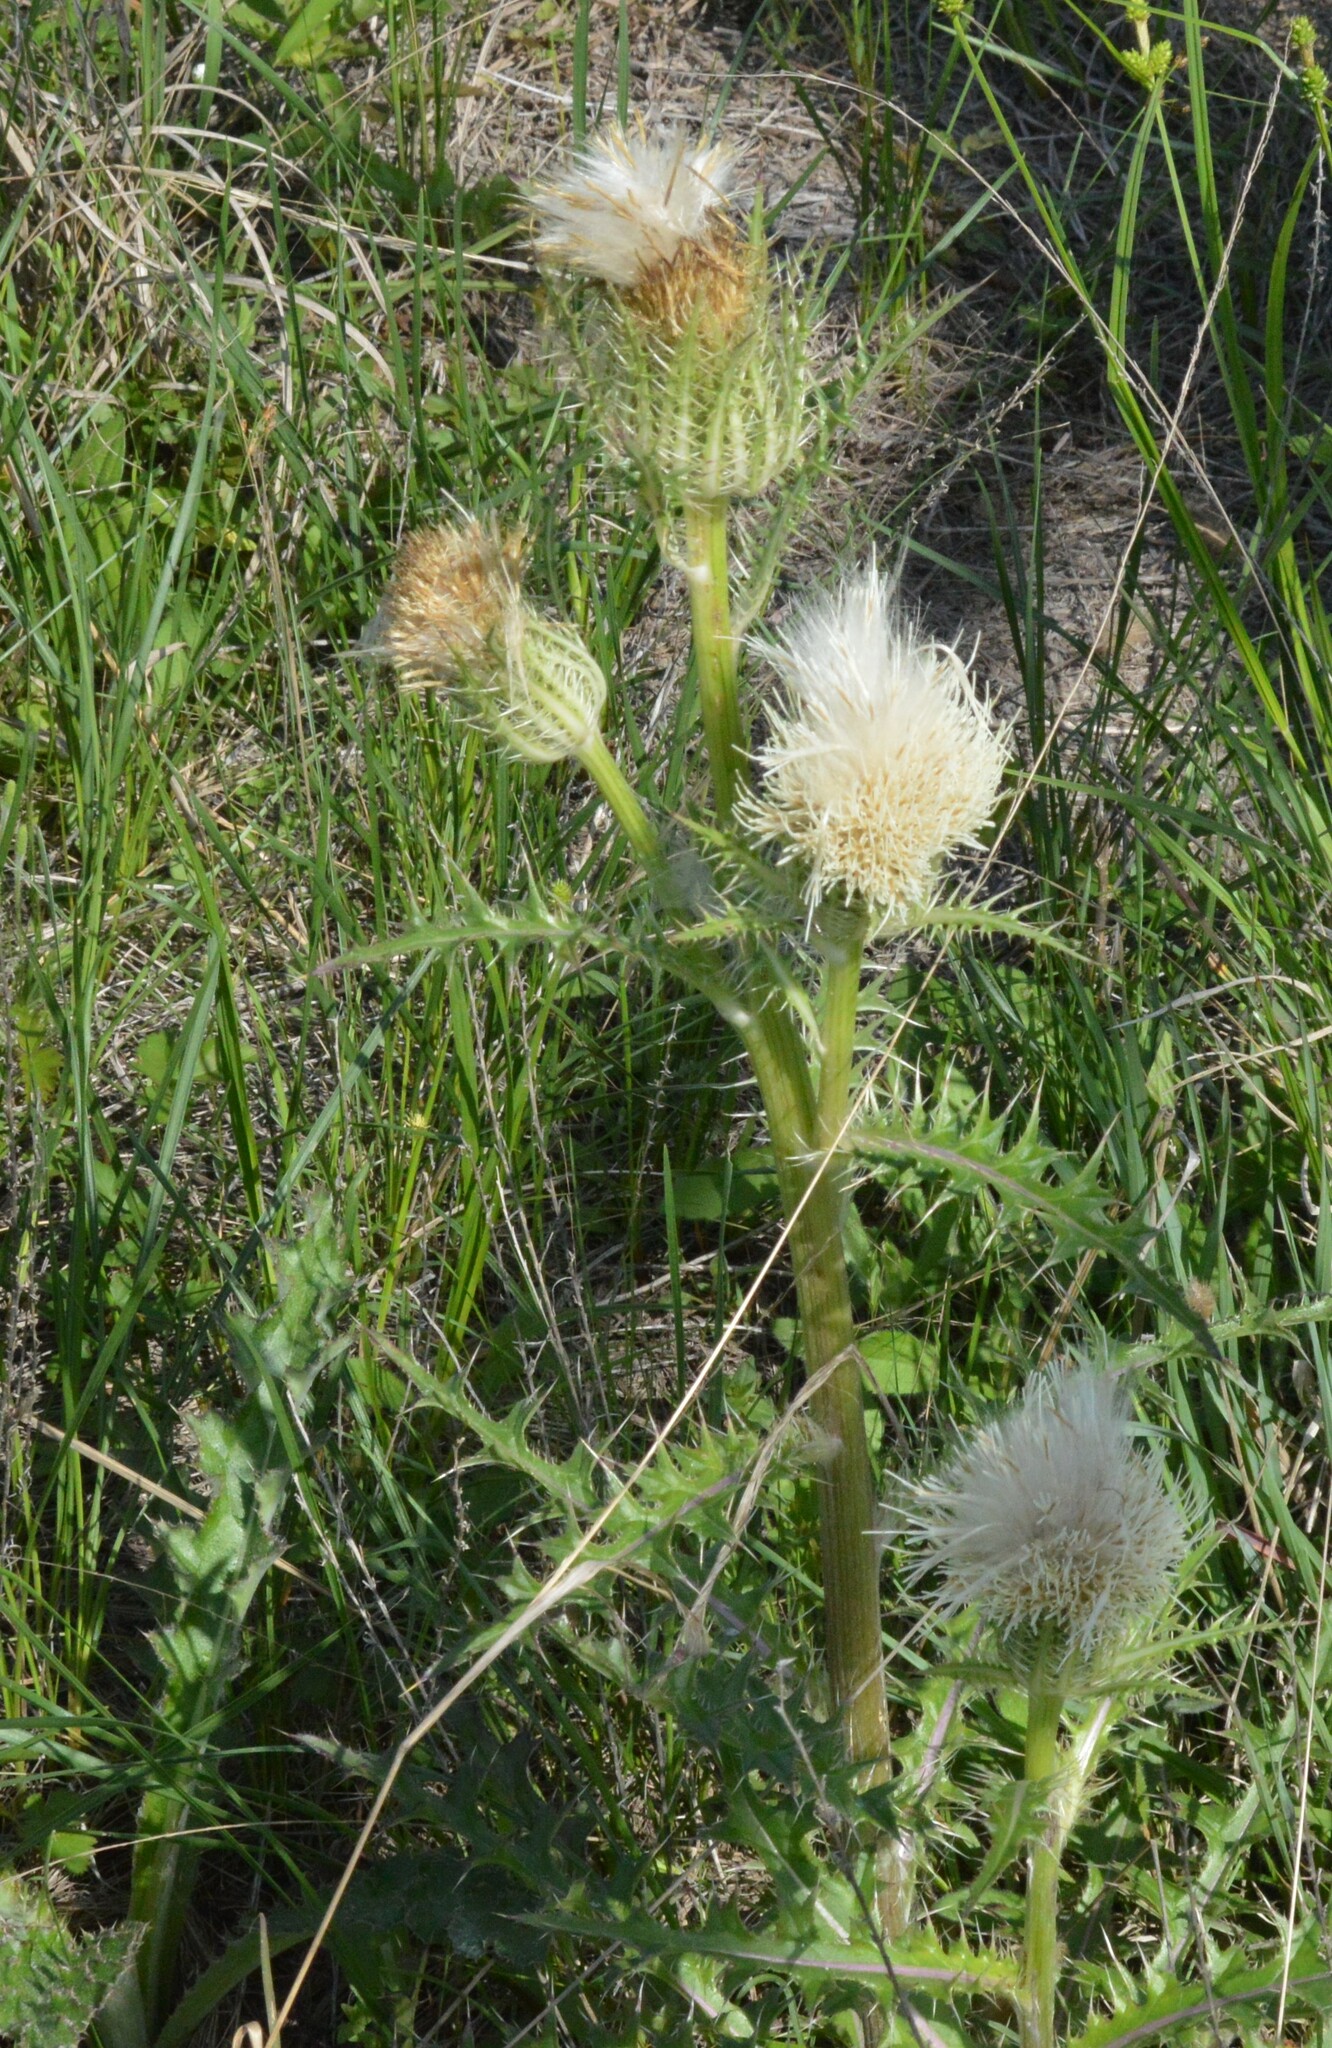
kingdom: Plantae
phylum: Tracheophyta
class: Magnoliopsida
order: Asterales
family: Asteraceae
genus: Cirsium
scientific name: Cirsium horridulum
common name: Bristly thistle
